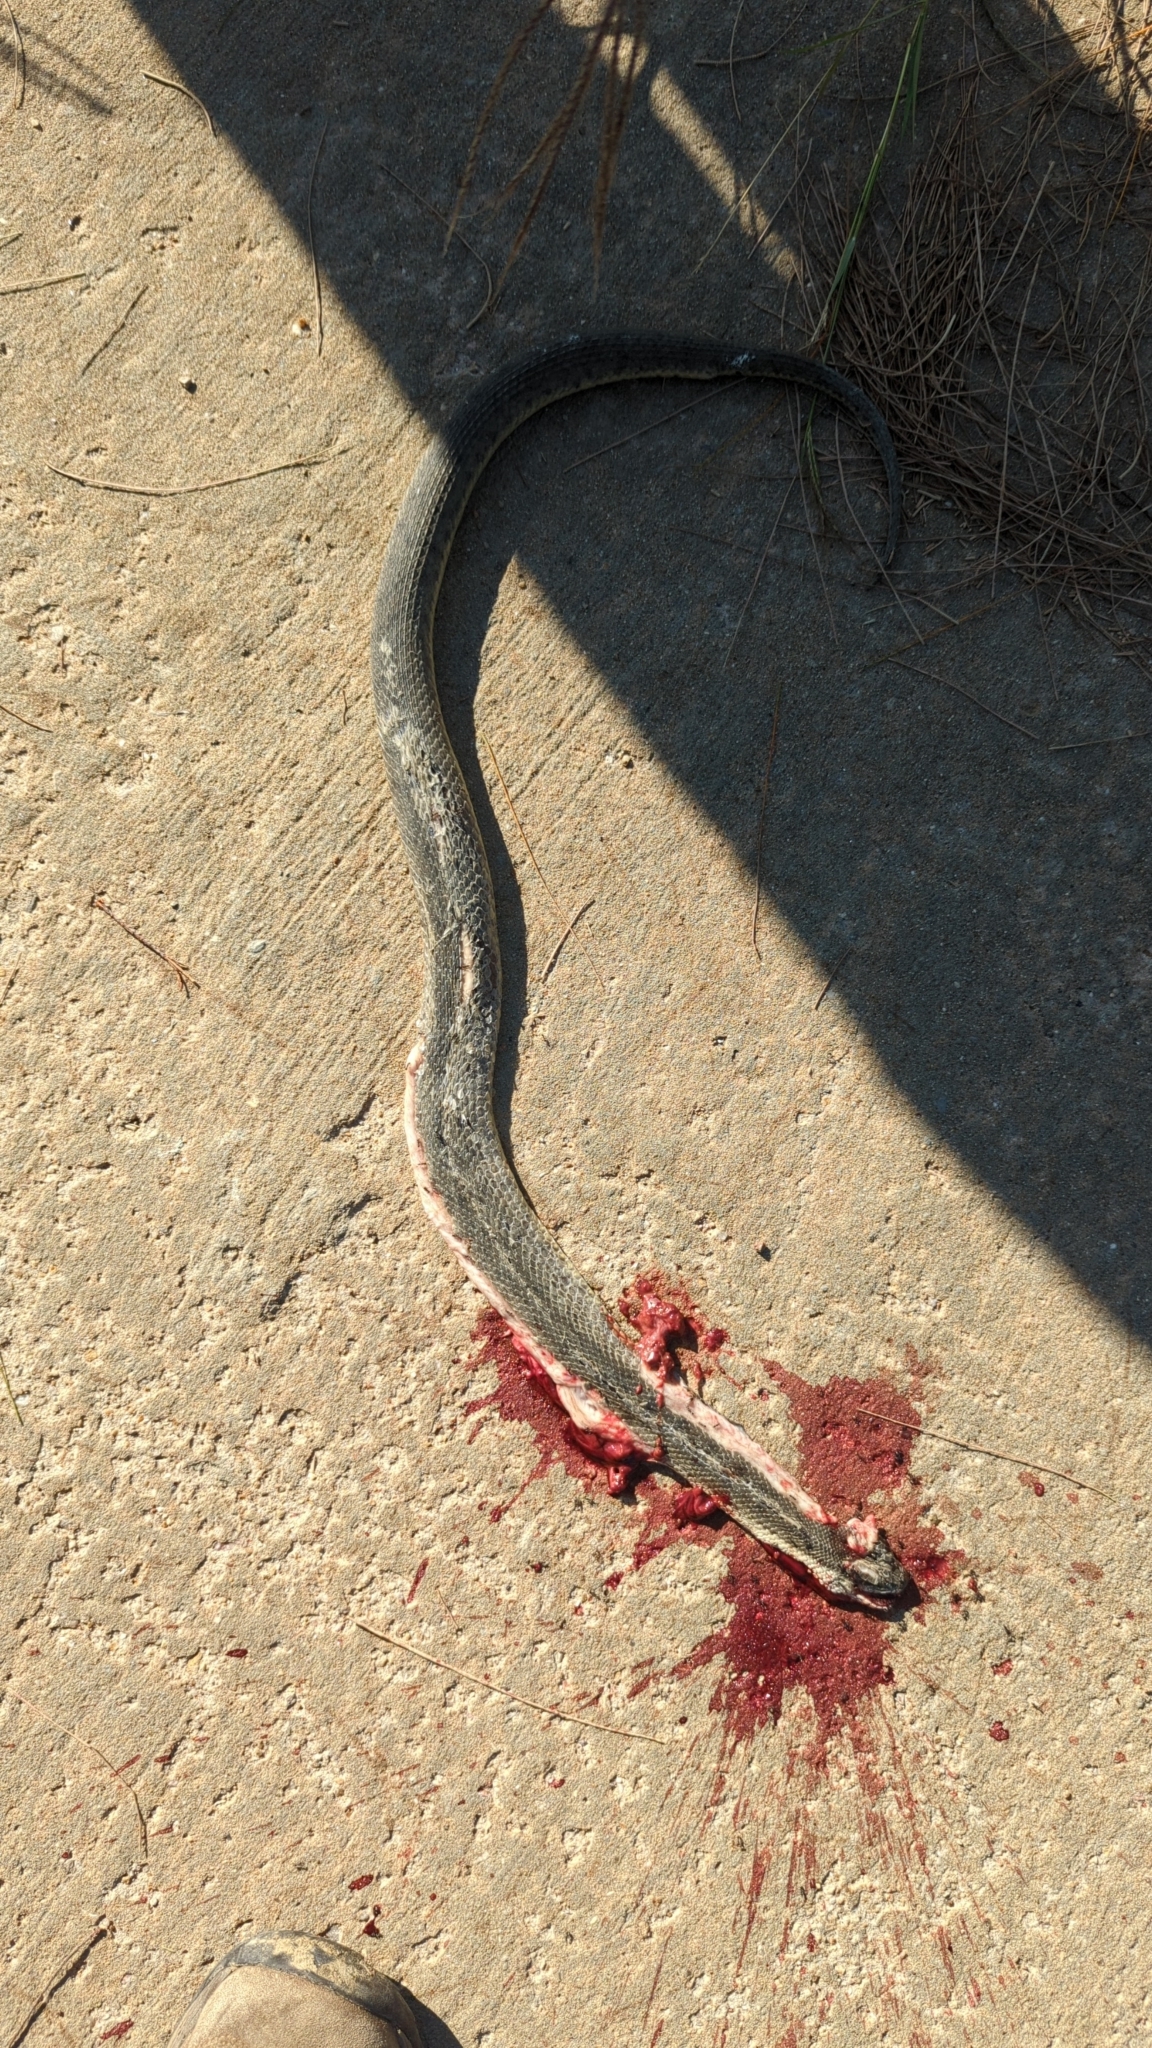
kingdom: Animalia
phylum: Chordata
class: Squamata
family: Homalopsidae
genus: Cerberus
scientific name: Cerberus schneiderii
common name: Southeast asian bockadam
